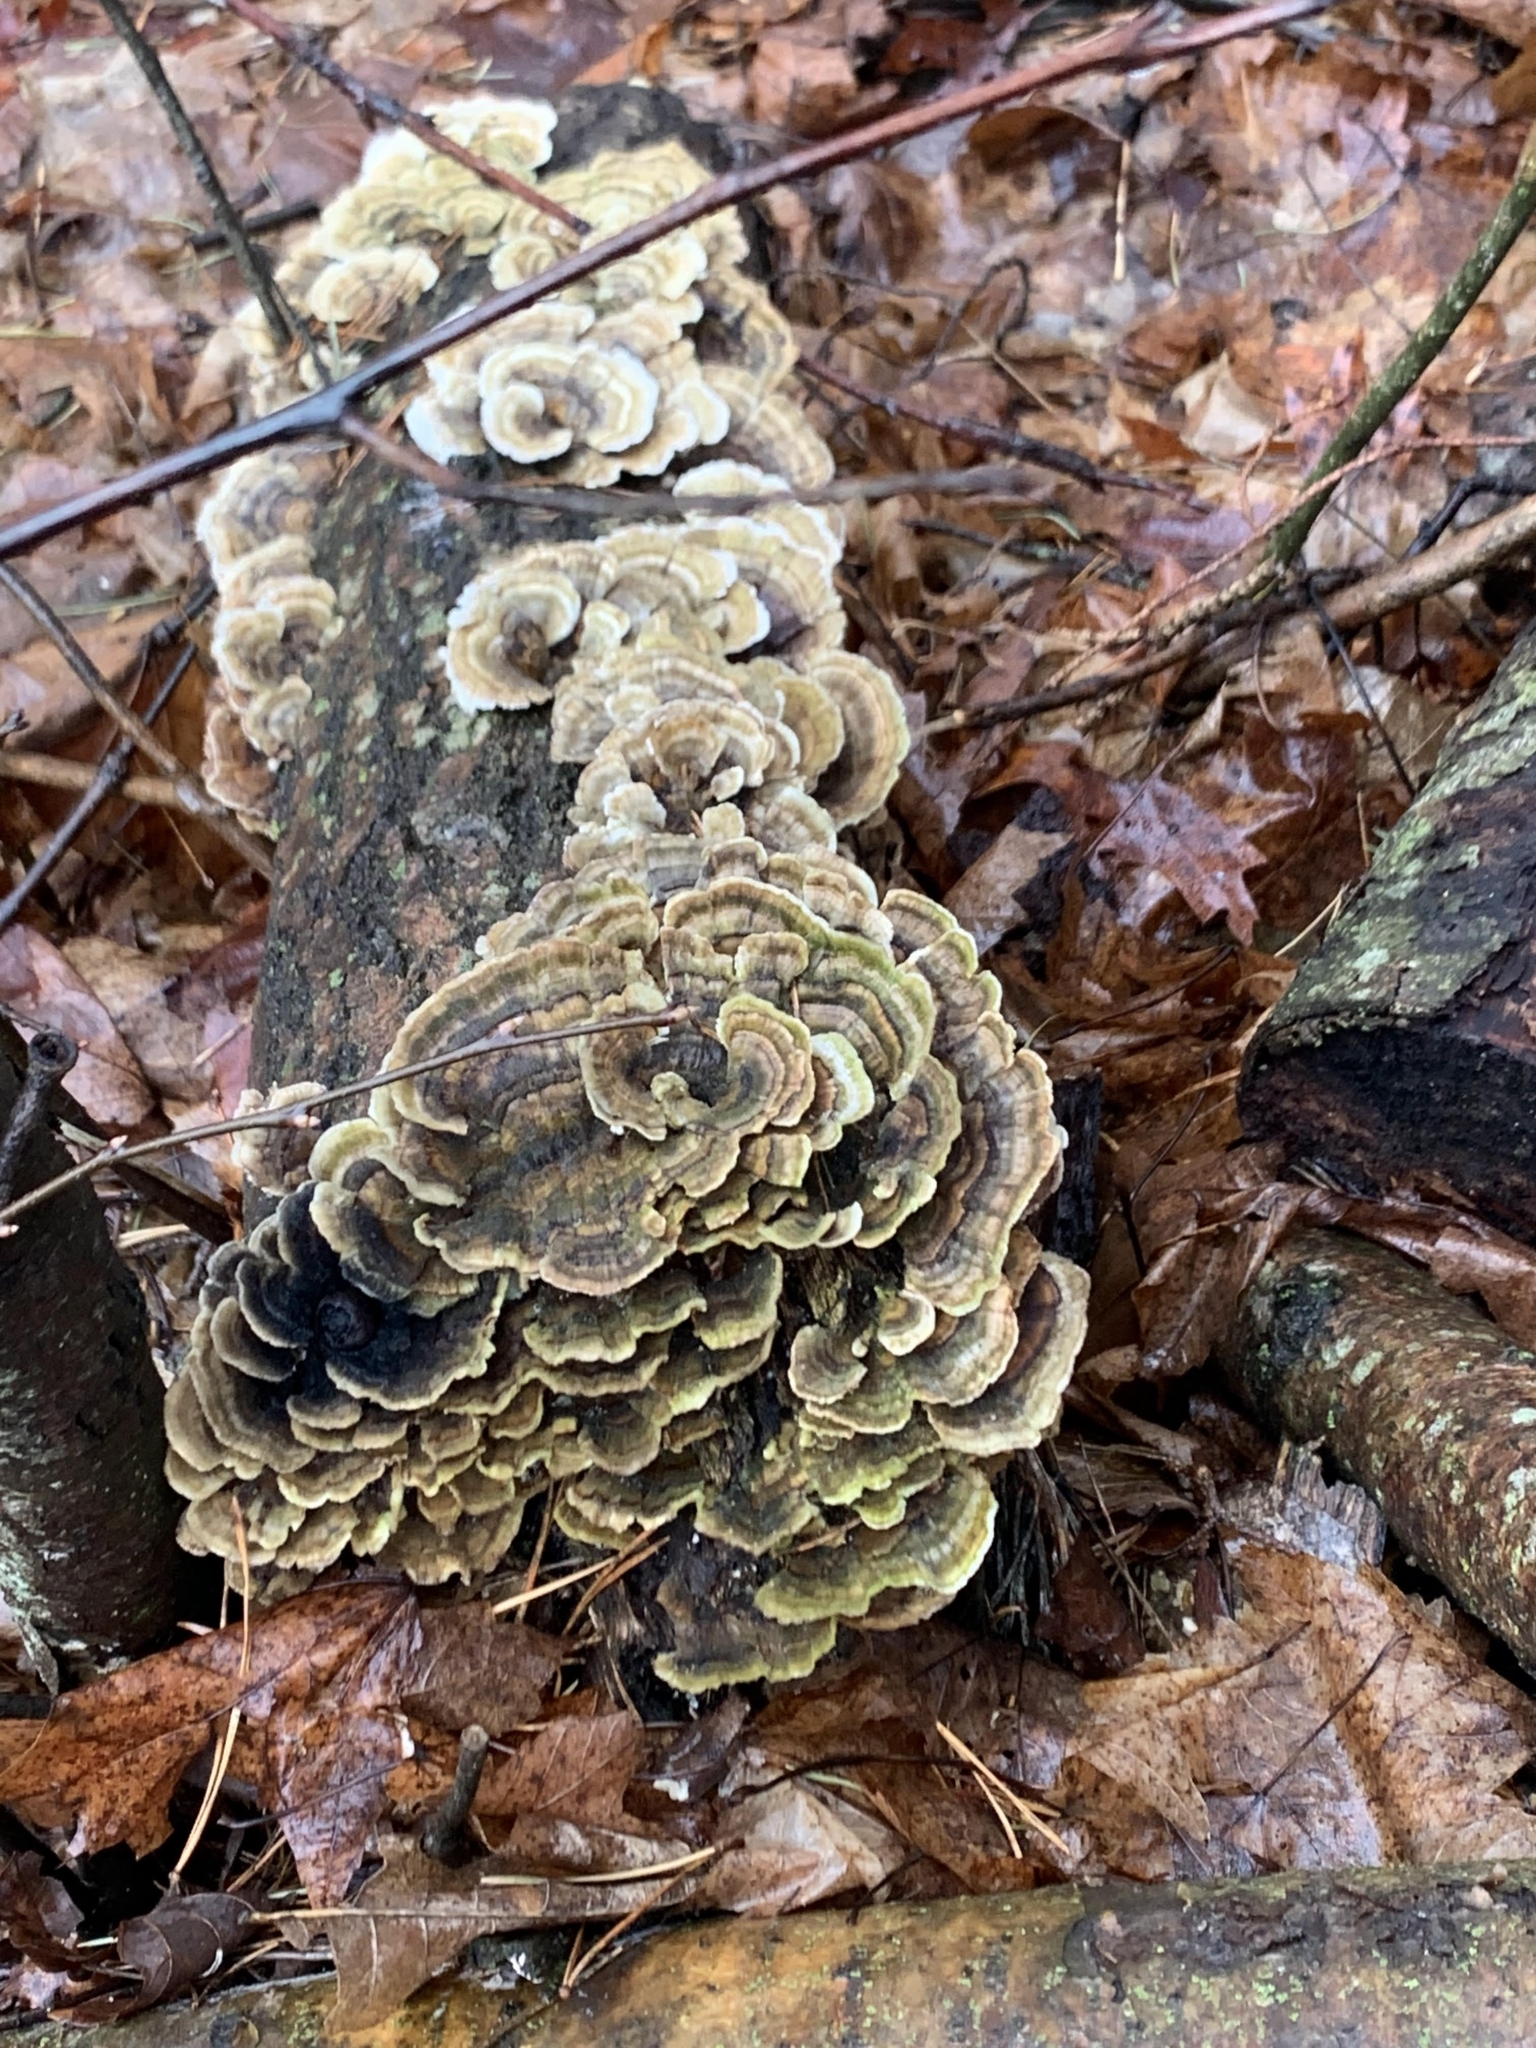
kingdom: Fungi
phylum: Basidiomycota
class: Agaricomycetes
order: Polyporales
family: Polyporaceae
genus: Trametes
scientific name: Trametes versicolor
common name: Turkeytail
